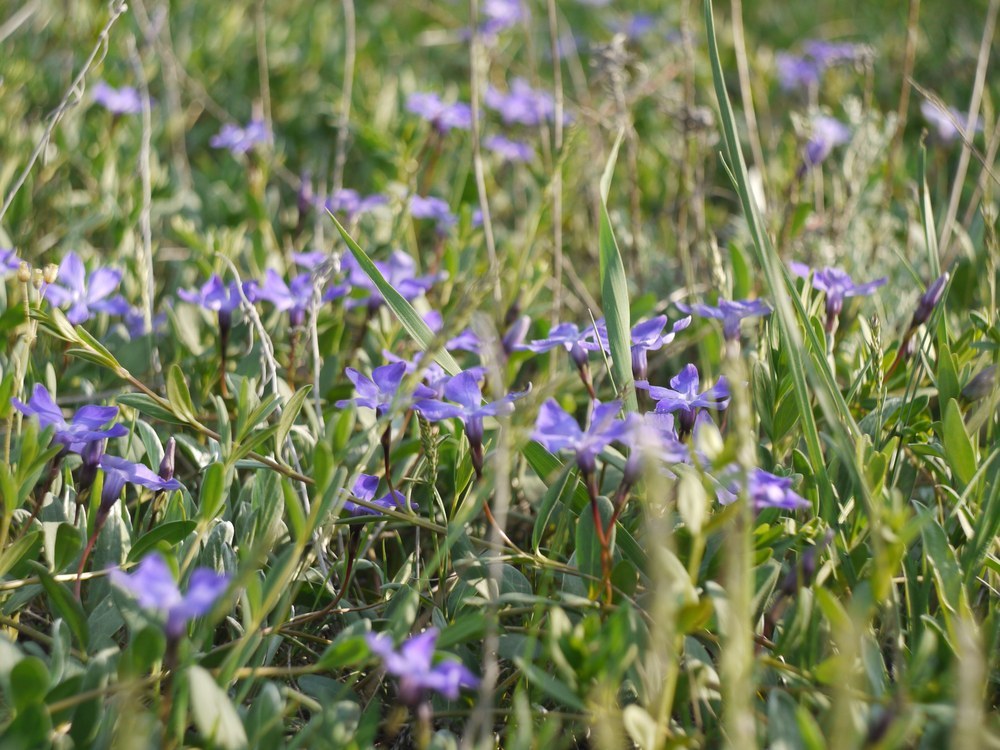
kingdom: Plantae
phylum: Tracheophyta
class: Magnoliopsida
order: Gentianales
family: Apocynaceae
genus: Vinca
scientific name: Vinca herbacea
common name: Herbaceous periwinkle
